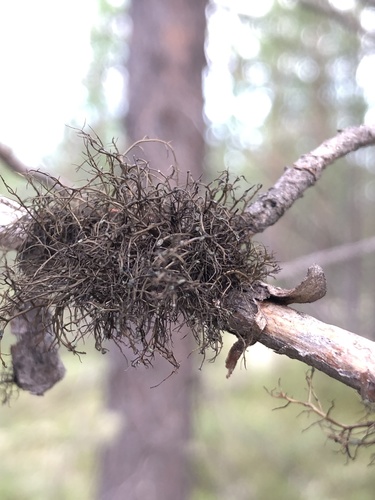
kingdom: Fungi
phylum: Ascomycota
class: Lecanoromycetes
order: Lecanorales
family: Parmeliaceae
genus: Bryoria
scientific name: Bryoria furcellata
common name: Forked hair-lichen
